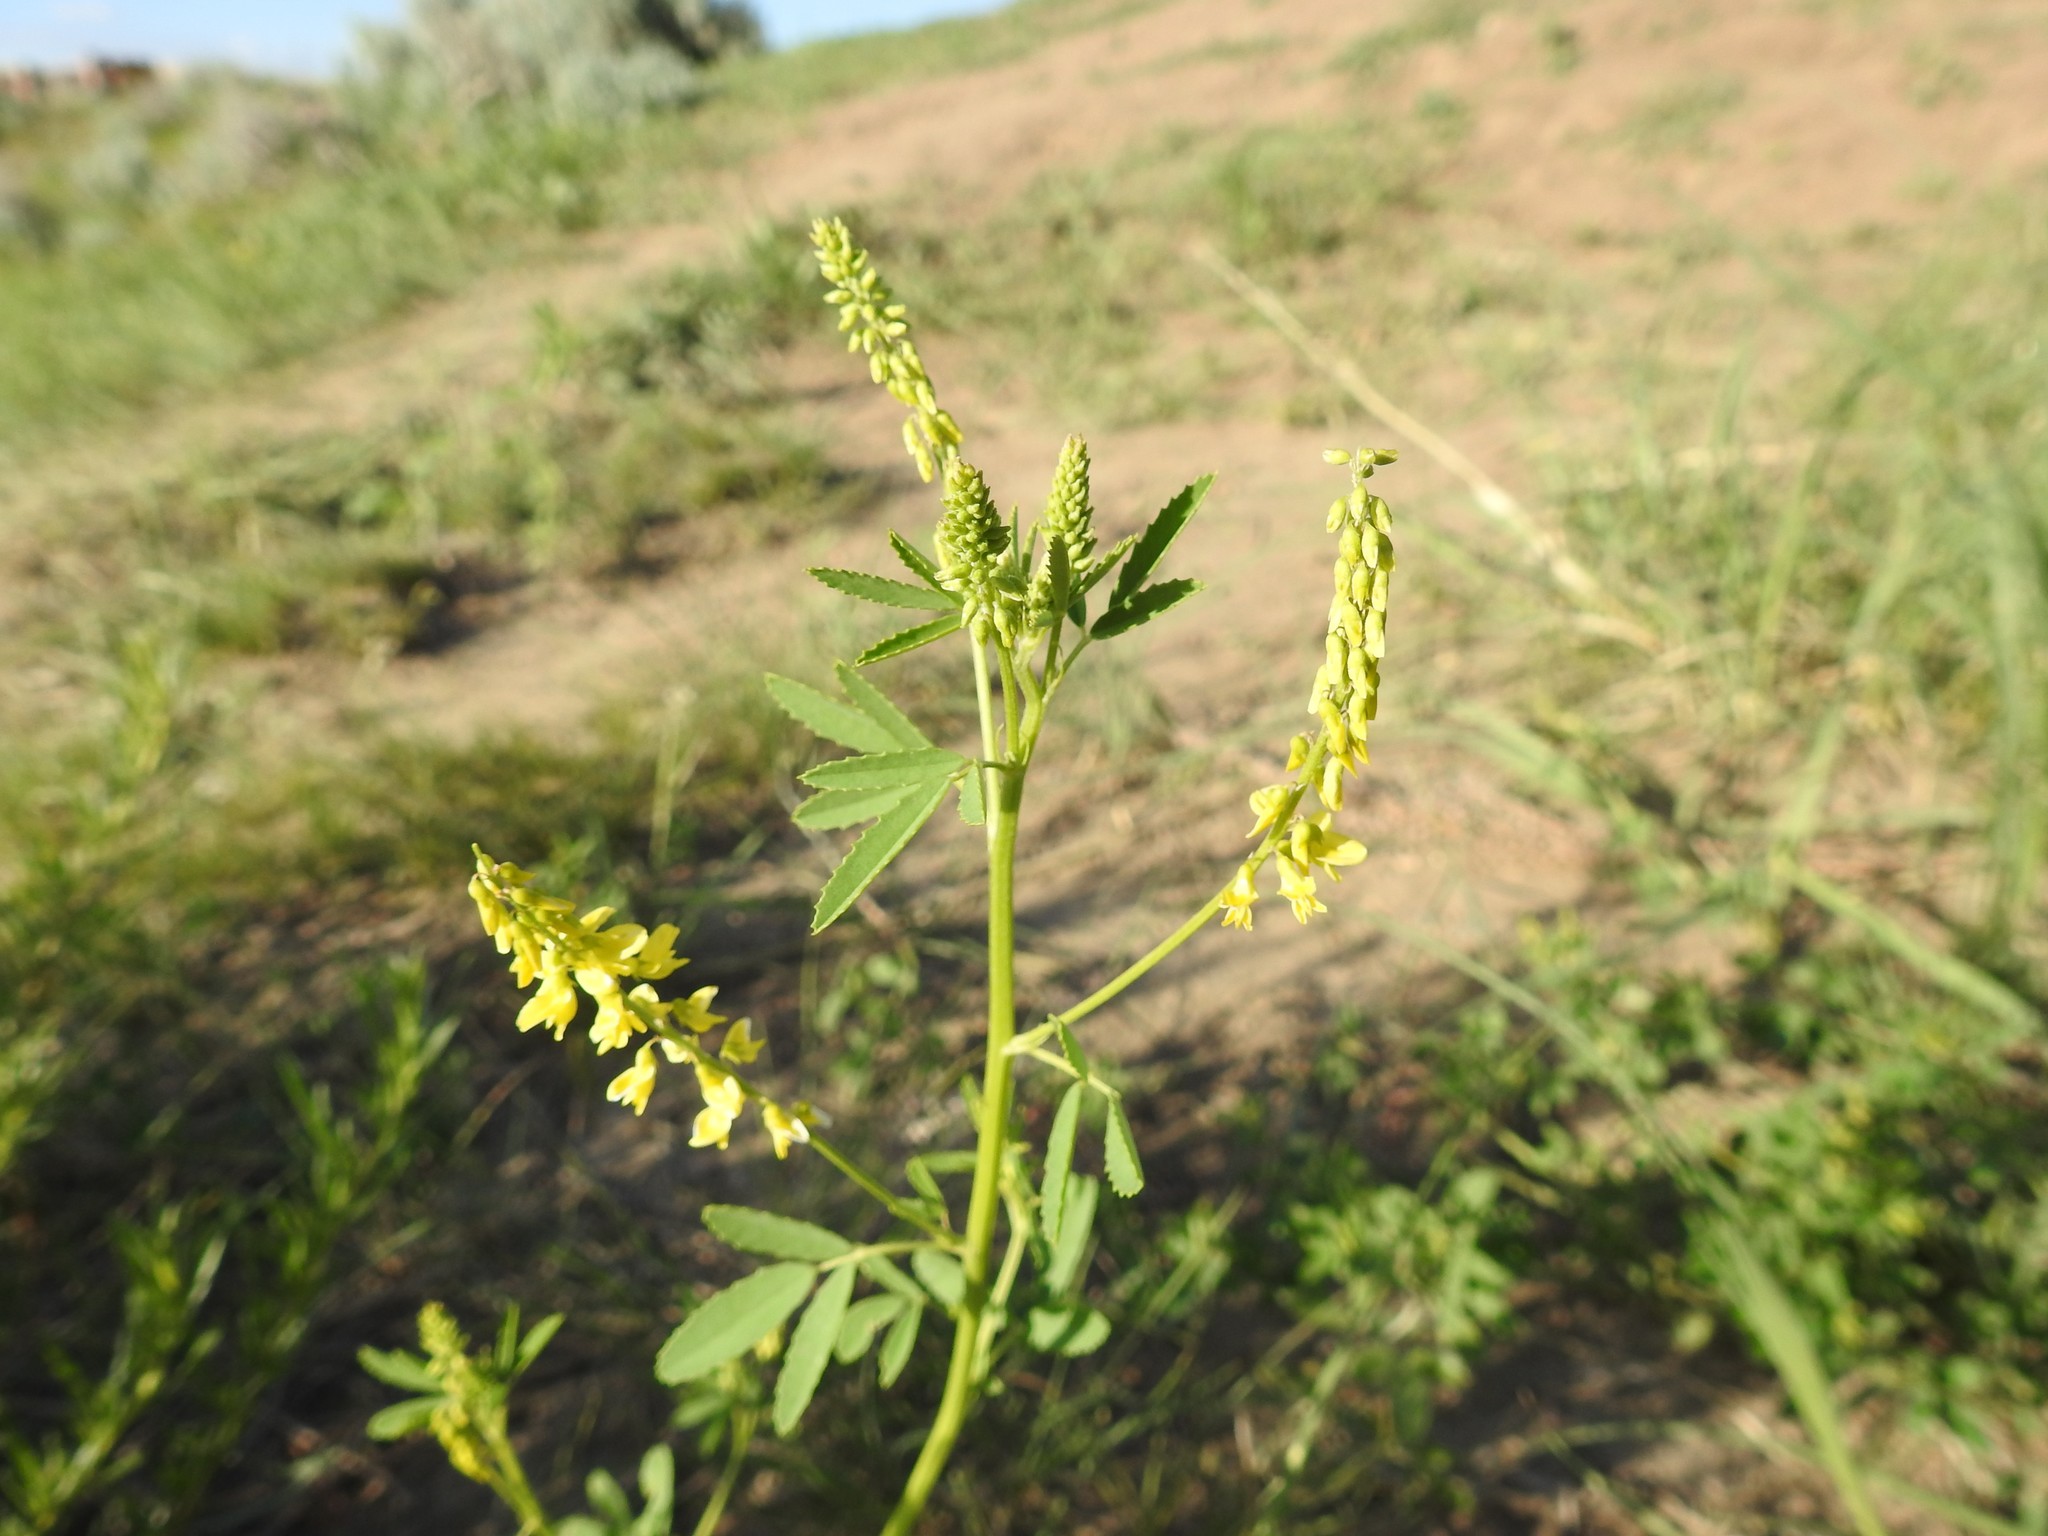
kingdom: Plantae
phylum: Tracheophyta
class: Magnoliopsida
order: Fabales
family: Fabaceae
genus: Melilotus
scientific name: Melilotus officinalis
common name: Sweetclover
